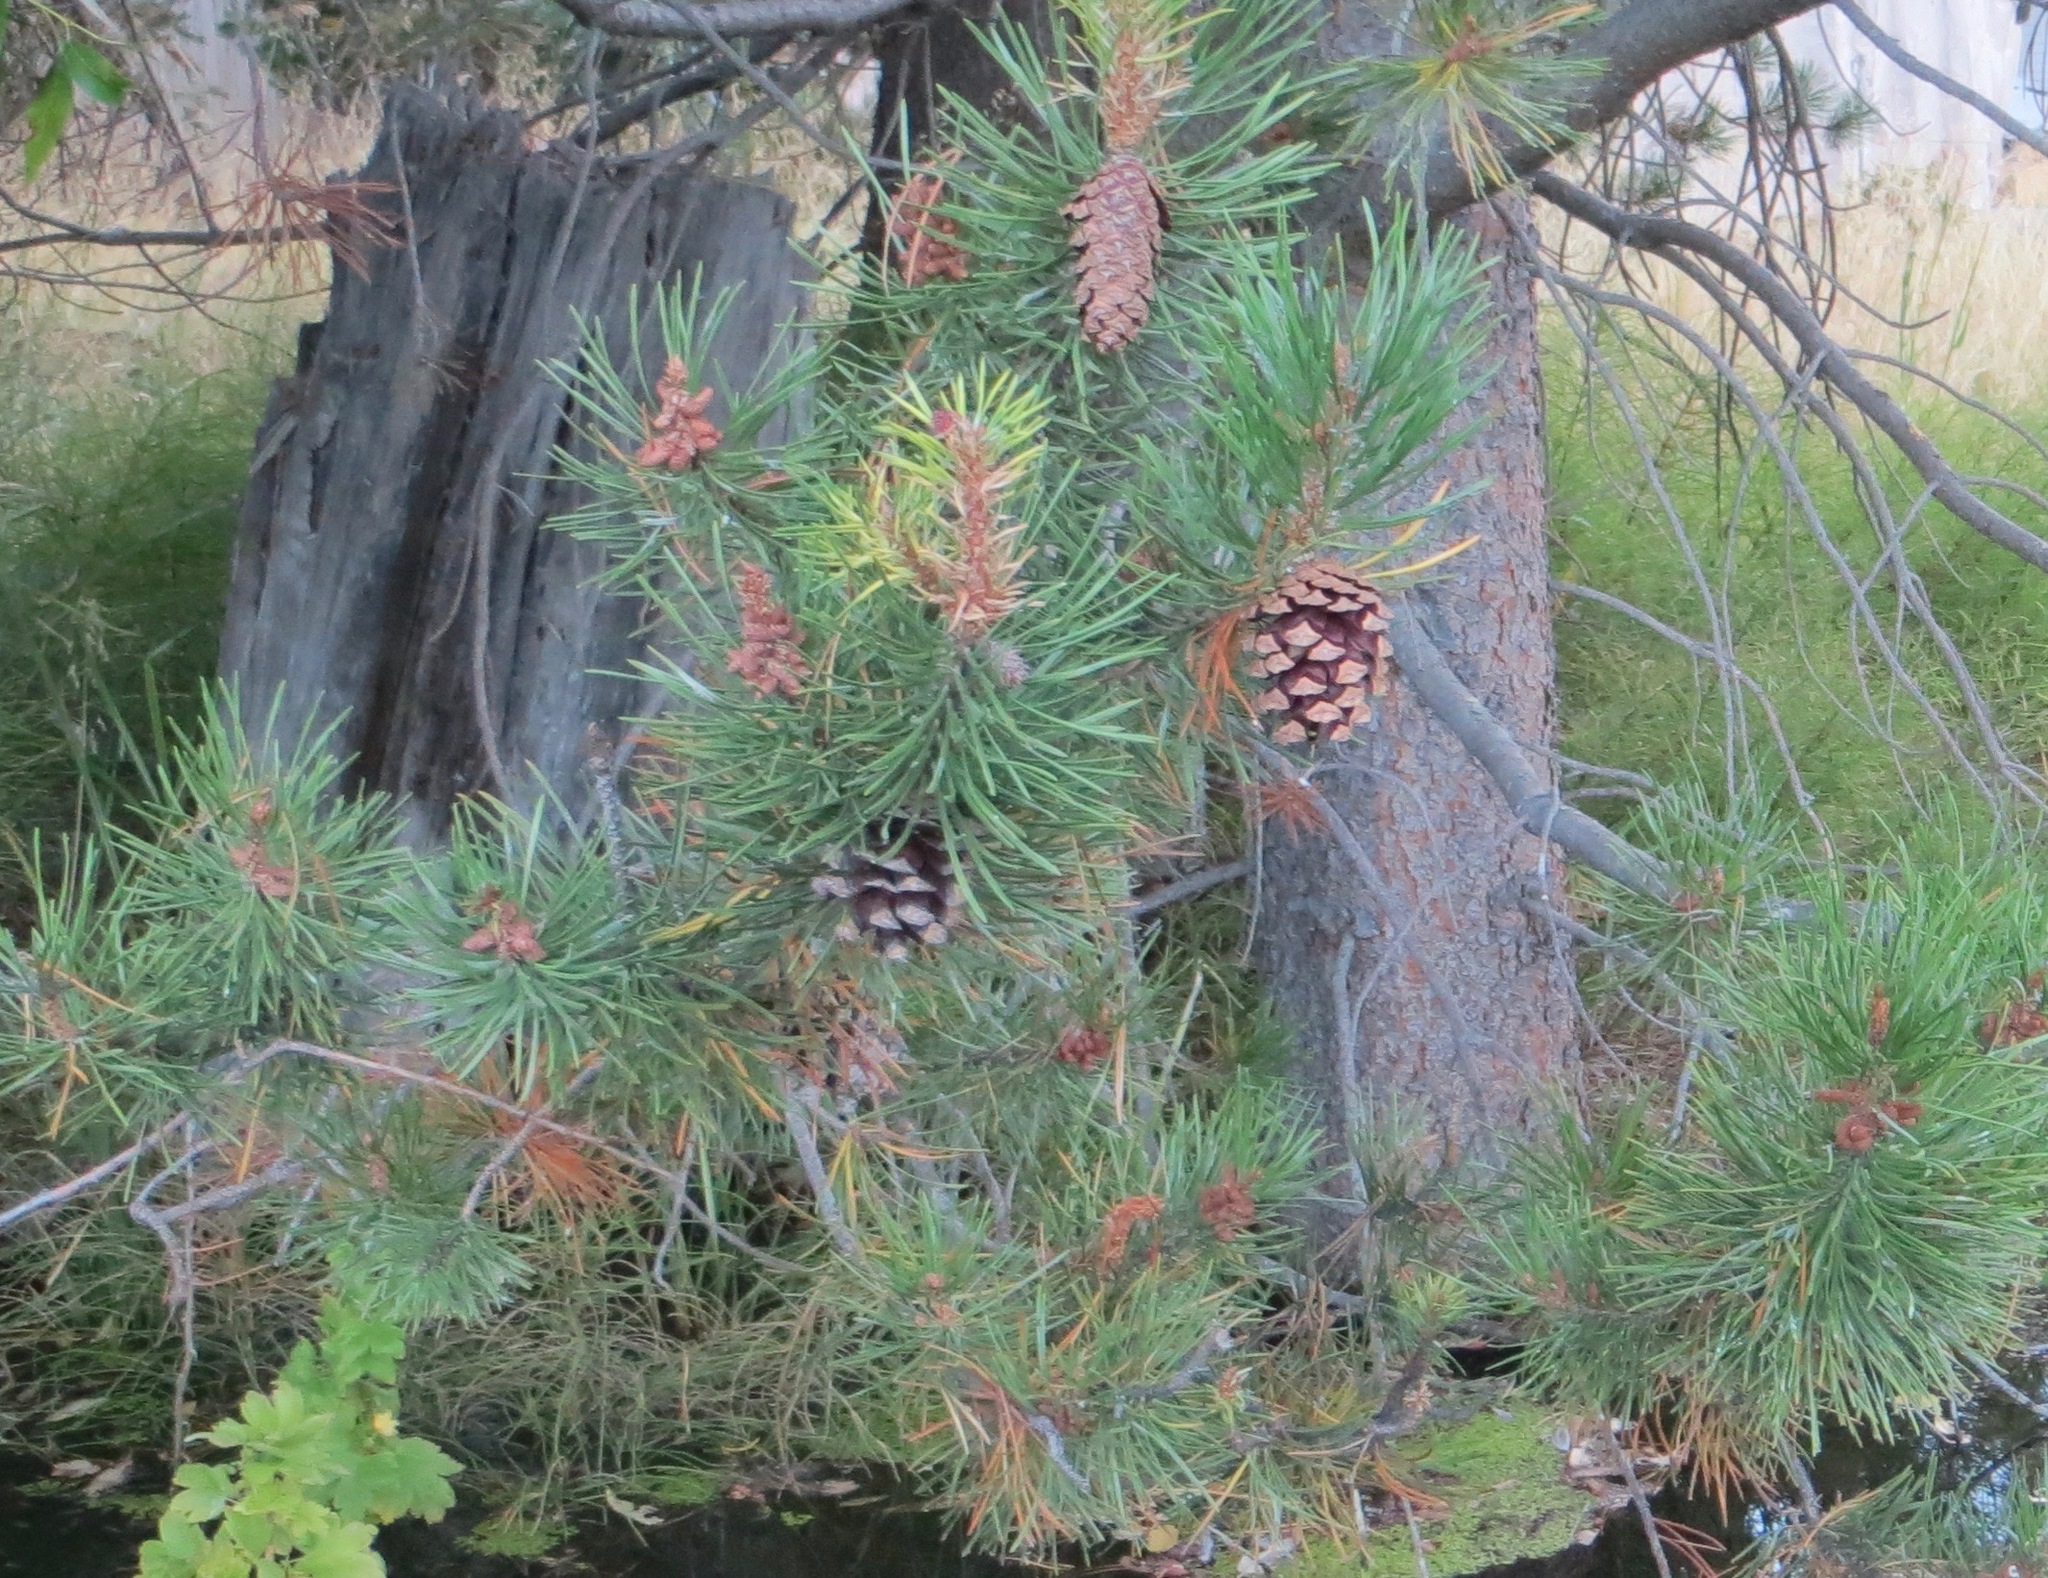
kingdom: Plantae
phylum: Tracheophyta
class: Pinopsida
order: Pinales
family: Pinaceae
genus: Pinus
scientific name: Pinus contorta
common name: Lodgepole pine
